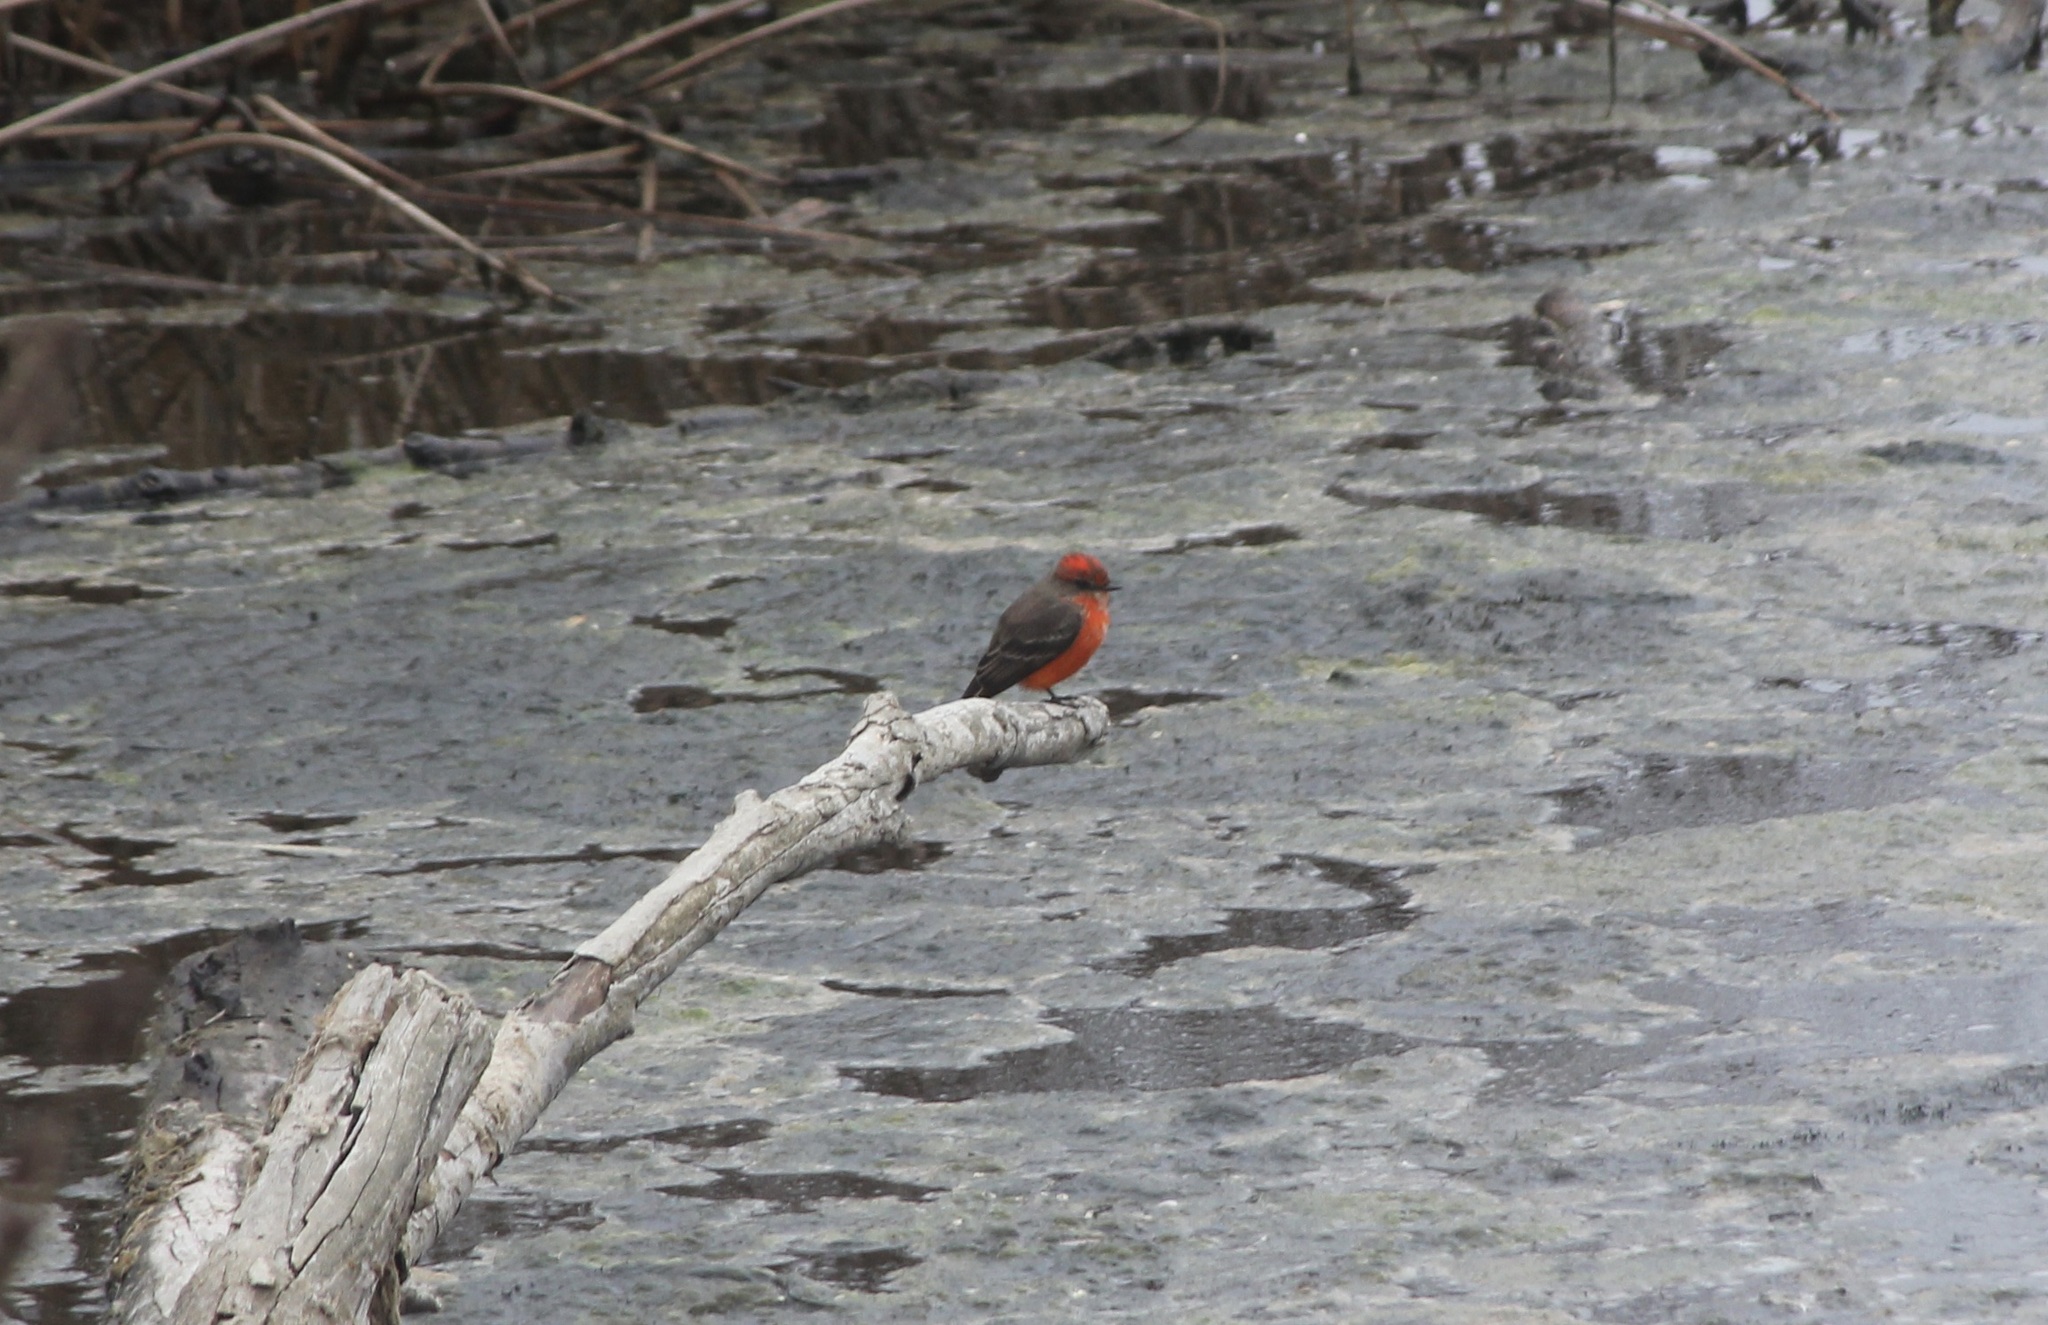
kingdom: Animalia
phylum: Chordata
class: Aves
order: Passeriformes
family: Tyrannidae
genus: Pyrocephalus
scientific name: Pyrocephalus rubinus
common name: Vermilion flycatcher
